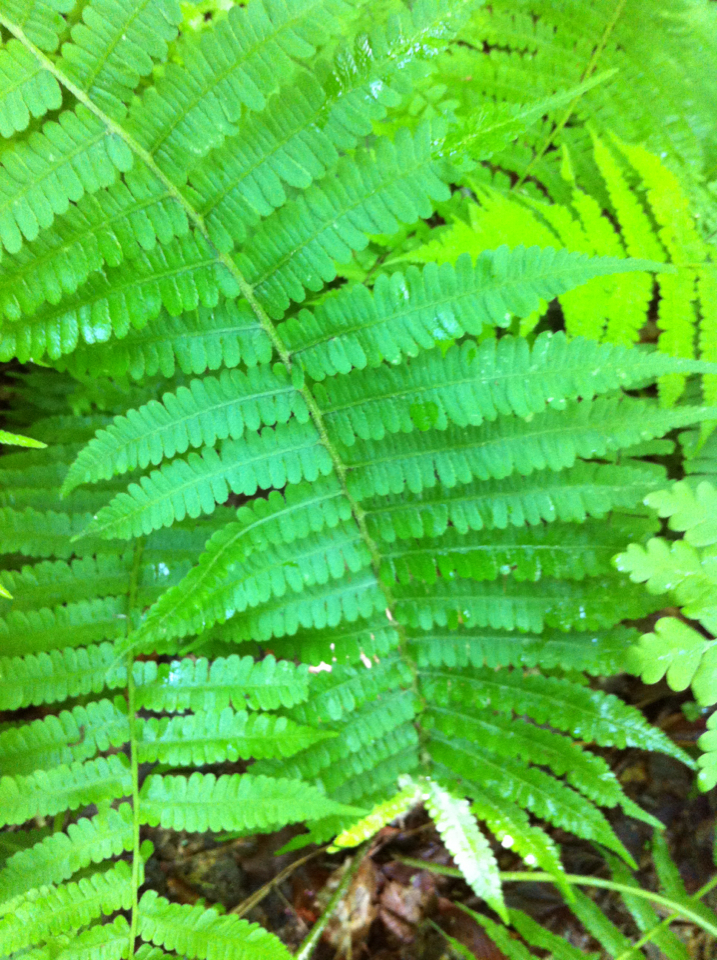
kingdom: Plantae
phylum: Tracheophyta
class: Polypodiopsida
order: Polypodiales
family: Athyriaceae
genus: Deparia
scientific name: Deparia acrostichoides
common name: Silver false spleenwort
